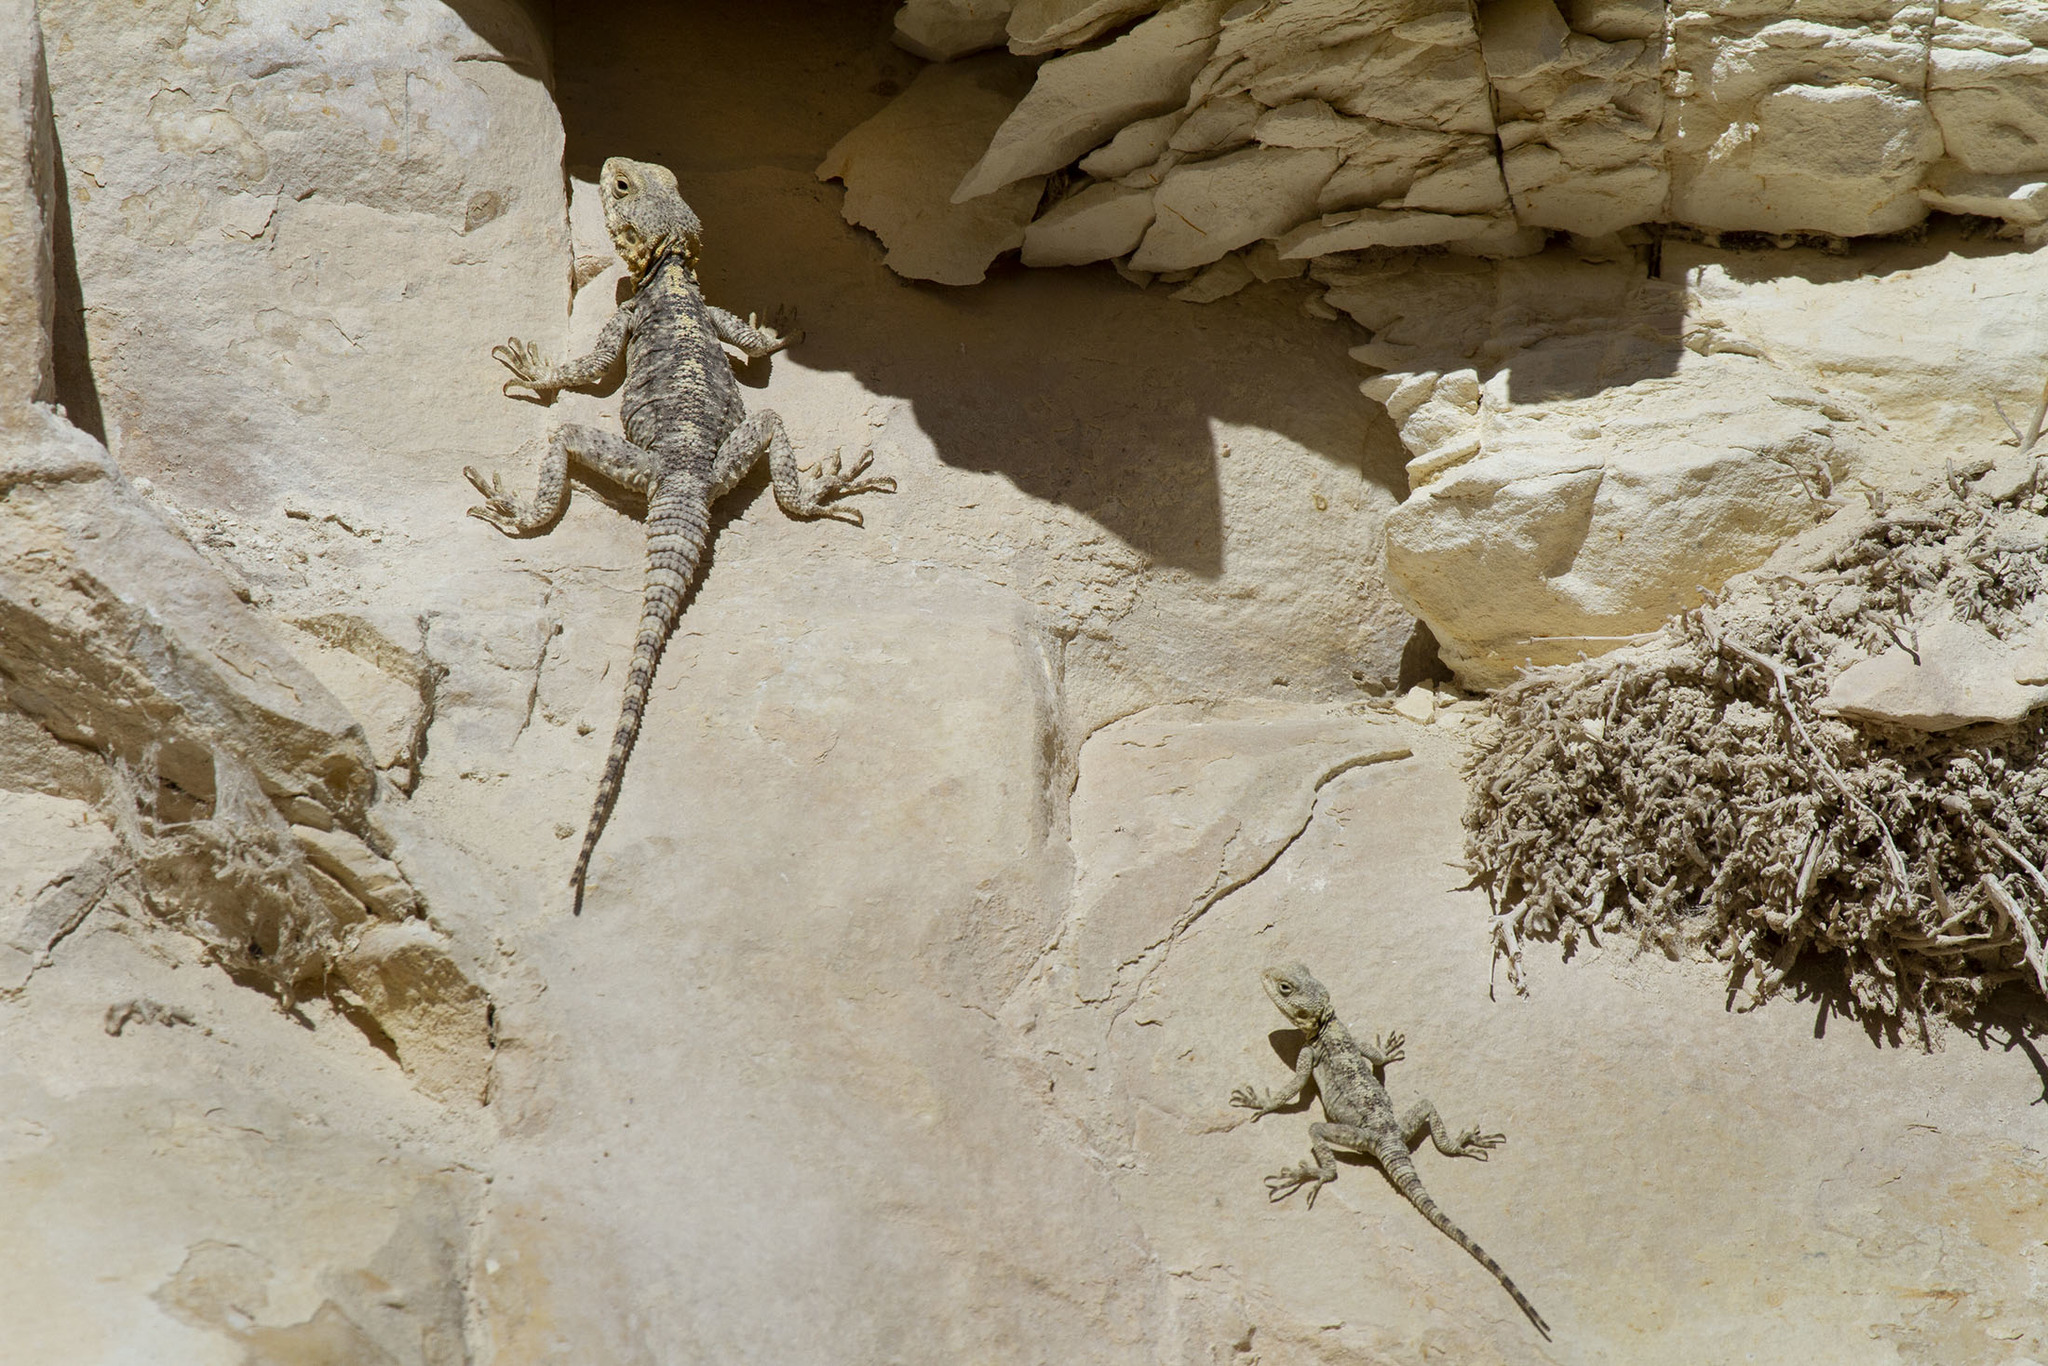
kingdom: Animalia
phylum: Chordata
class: Squamata
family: Agamidae
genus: Stellagama
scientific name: Stellagama stellio
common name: Starred agama
